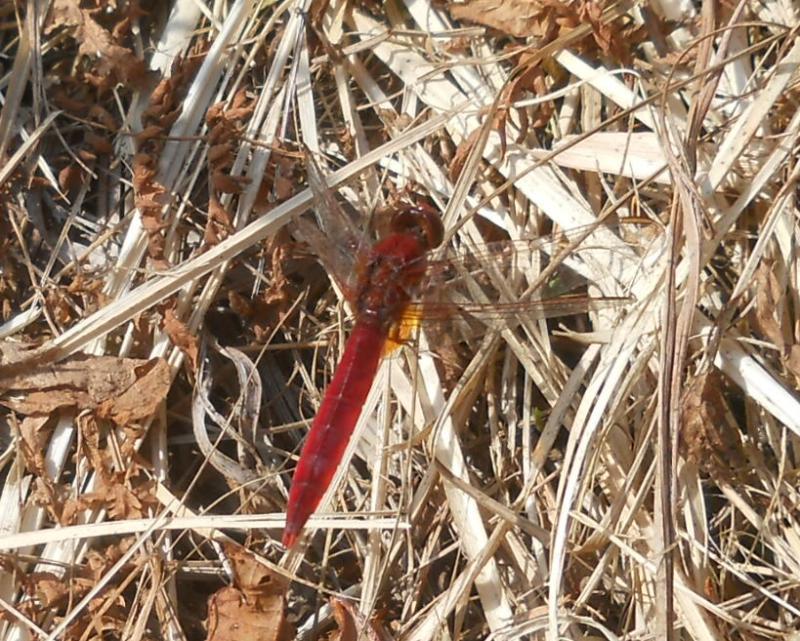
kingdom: Animalia
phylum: Arthropoda
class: Insecta
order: Odonata
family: Libellulidae
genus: Crocothemis
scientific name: Crocothemis erythraea
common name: Scarlet dragonfly
